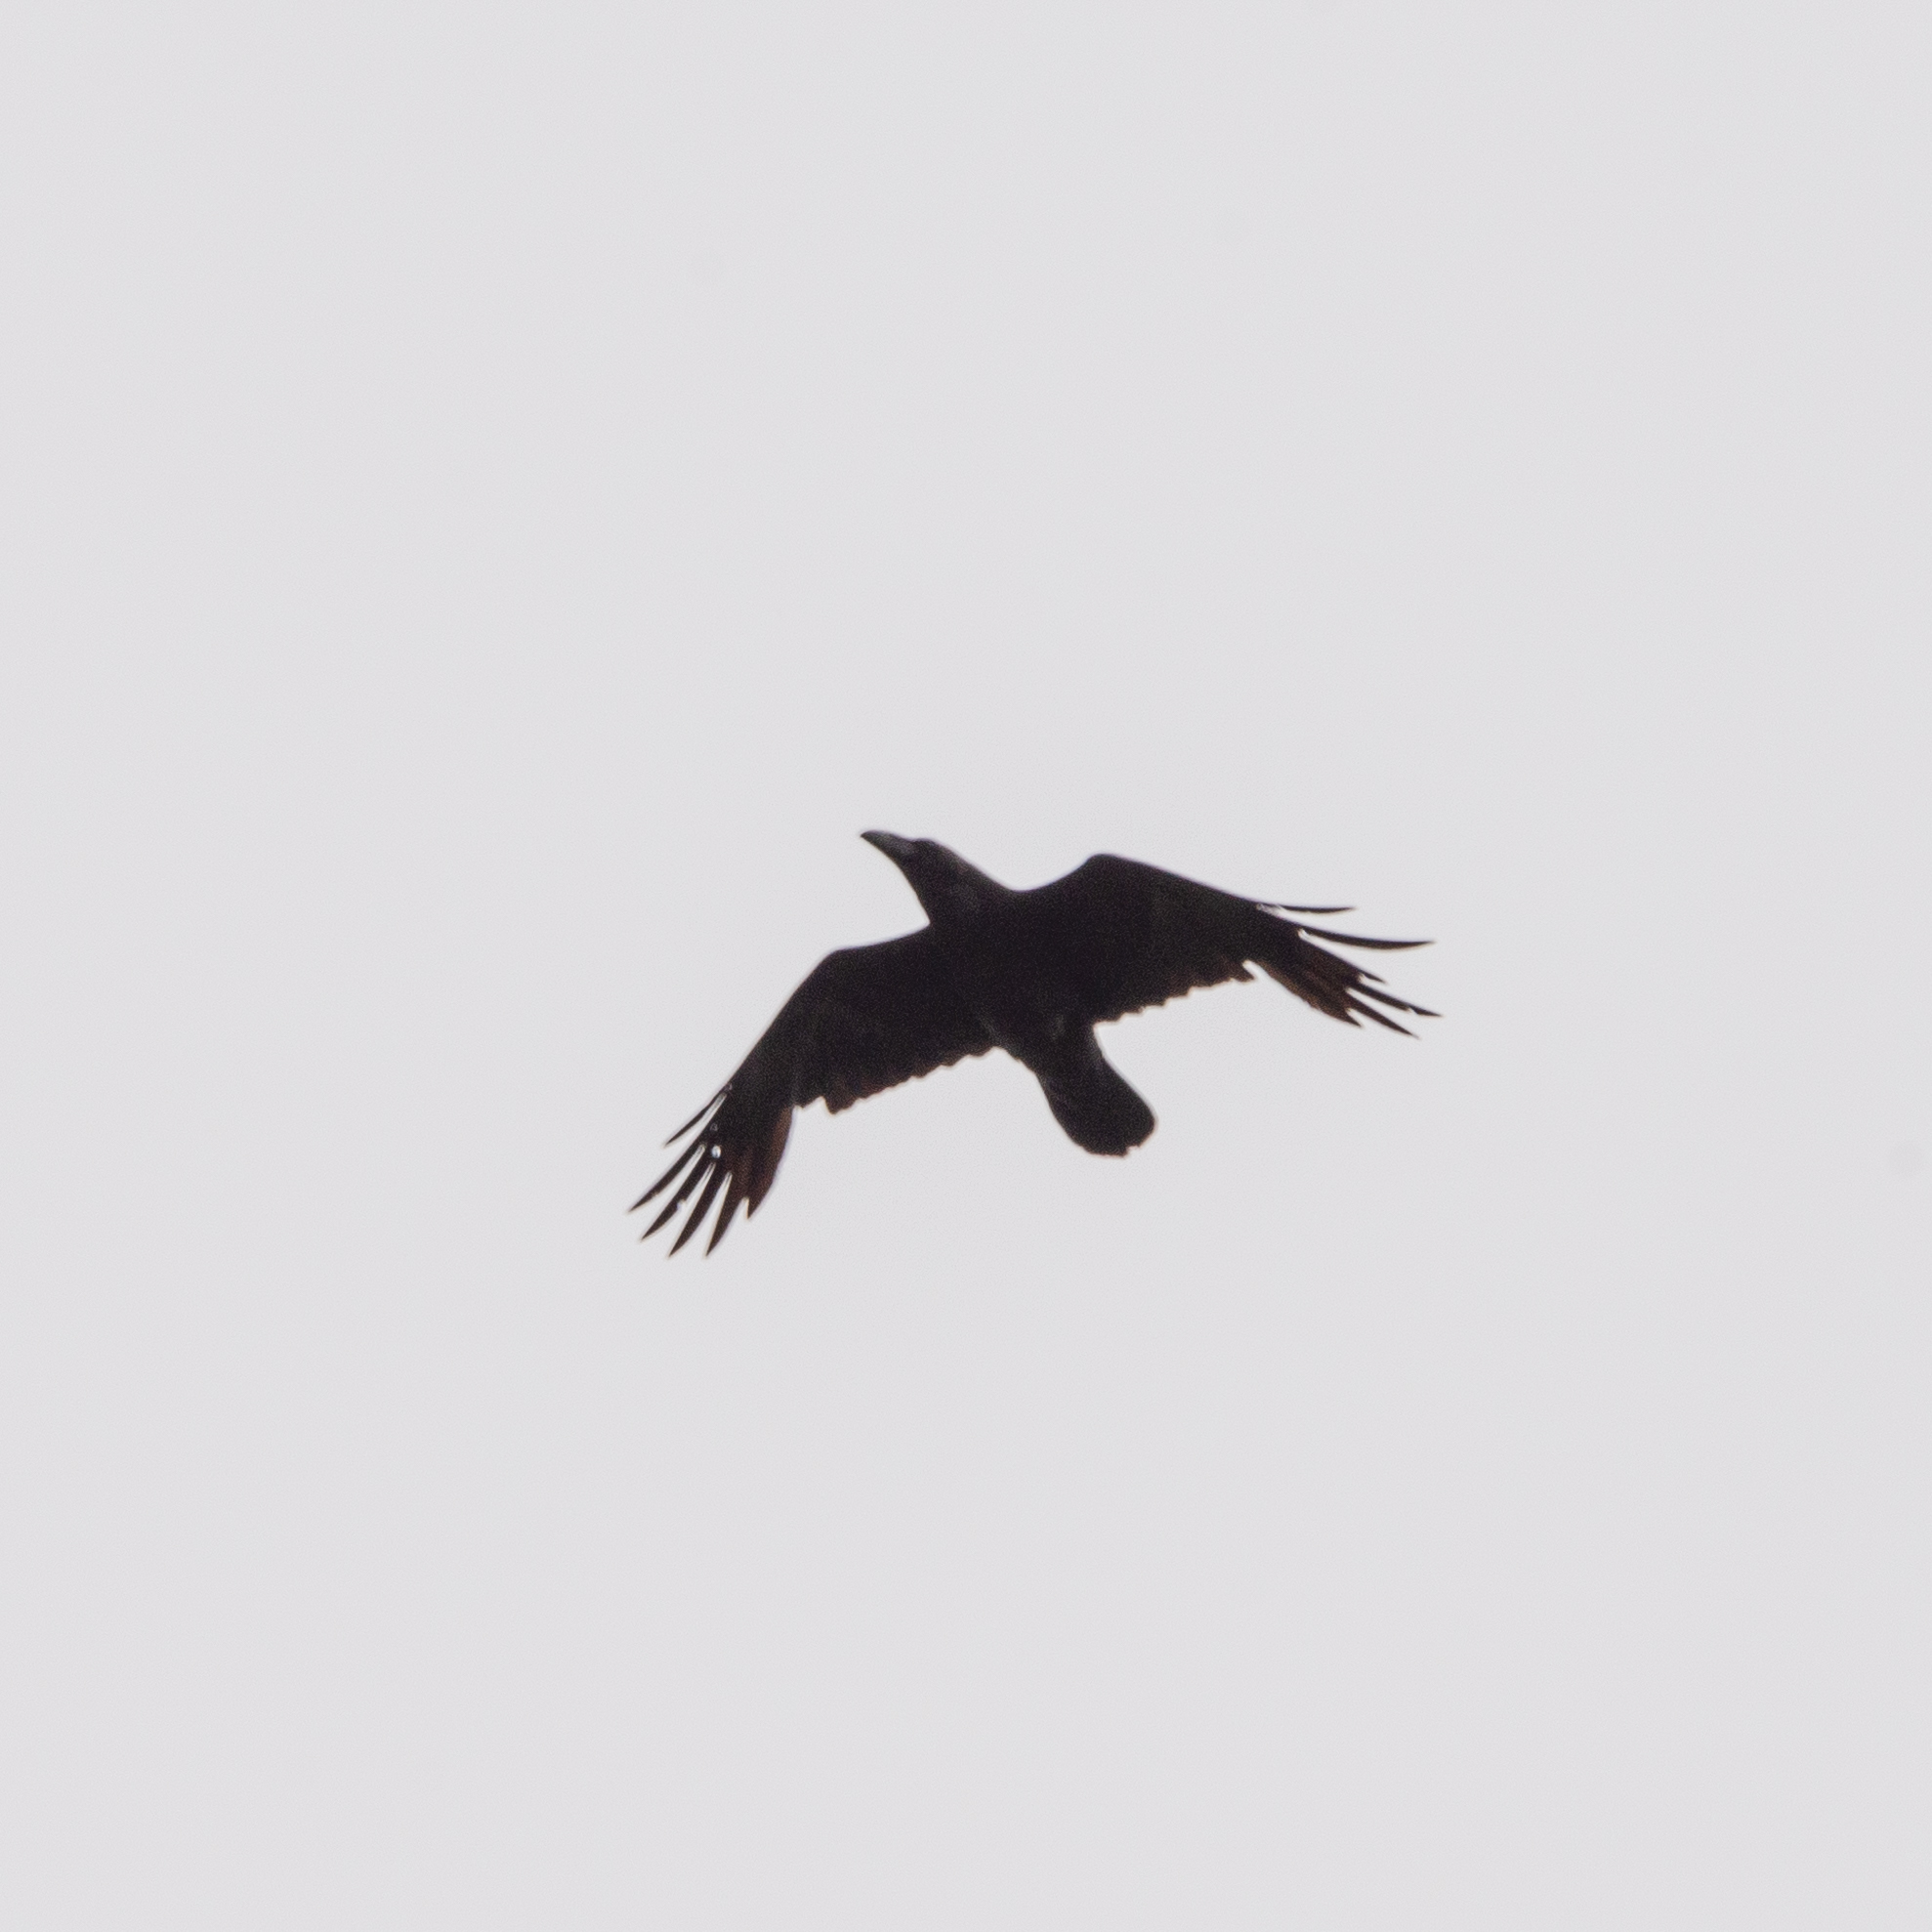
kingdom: Animalia
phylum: Chordata
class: Aves
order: Passeriformes
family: Corvidae
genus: Corvus
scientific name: Corvus corax
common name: Common raven
